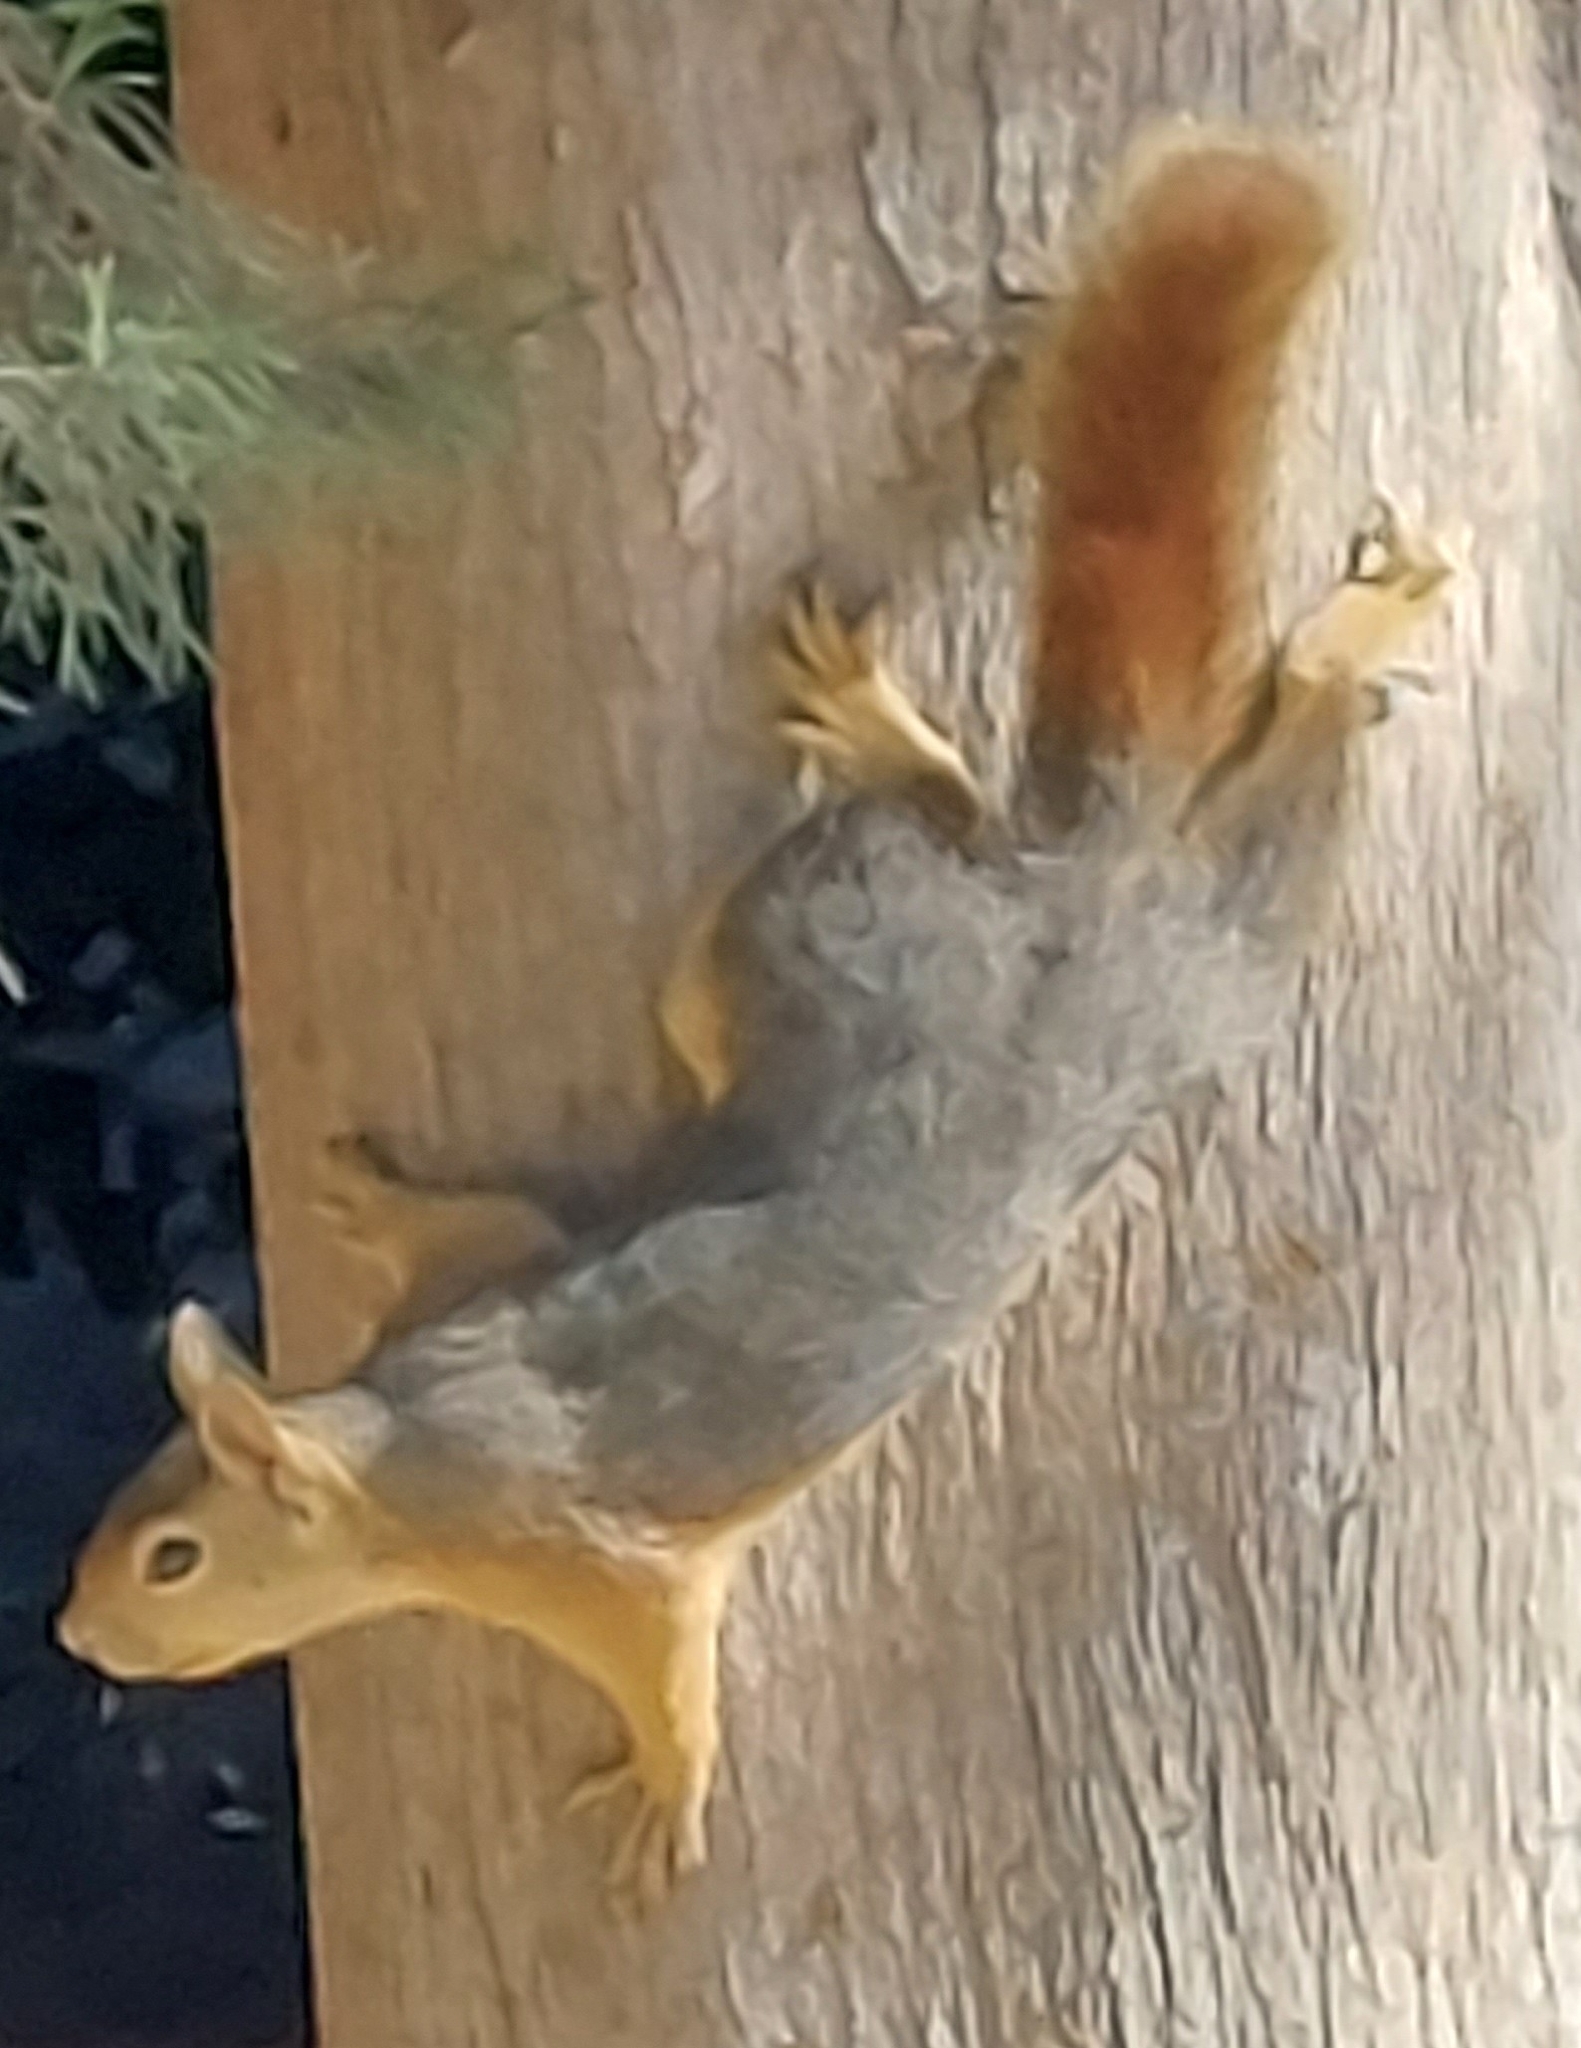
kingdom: Animalia
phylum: Chordata
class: Mammalia
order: Rodentia
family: Sciuridae
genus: Sciurus
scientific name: Sciurus anomalus
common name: Caucasian squirrel
